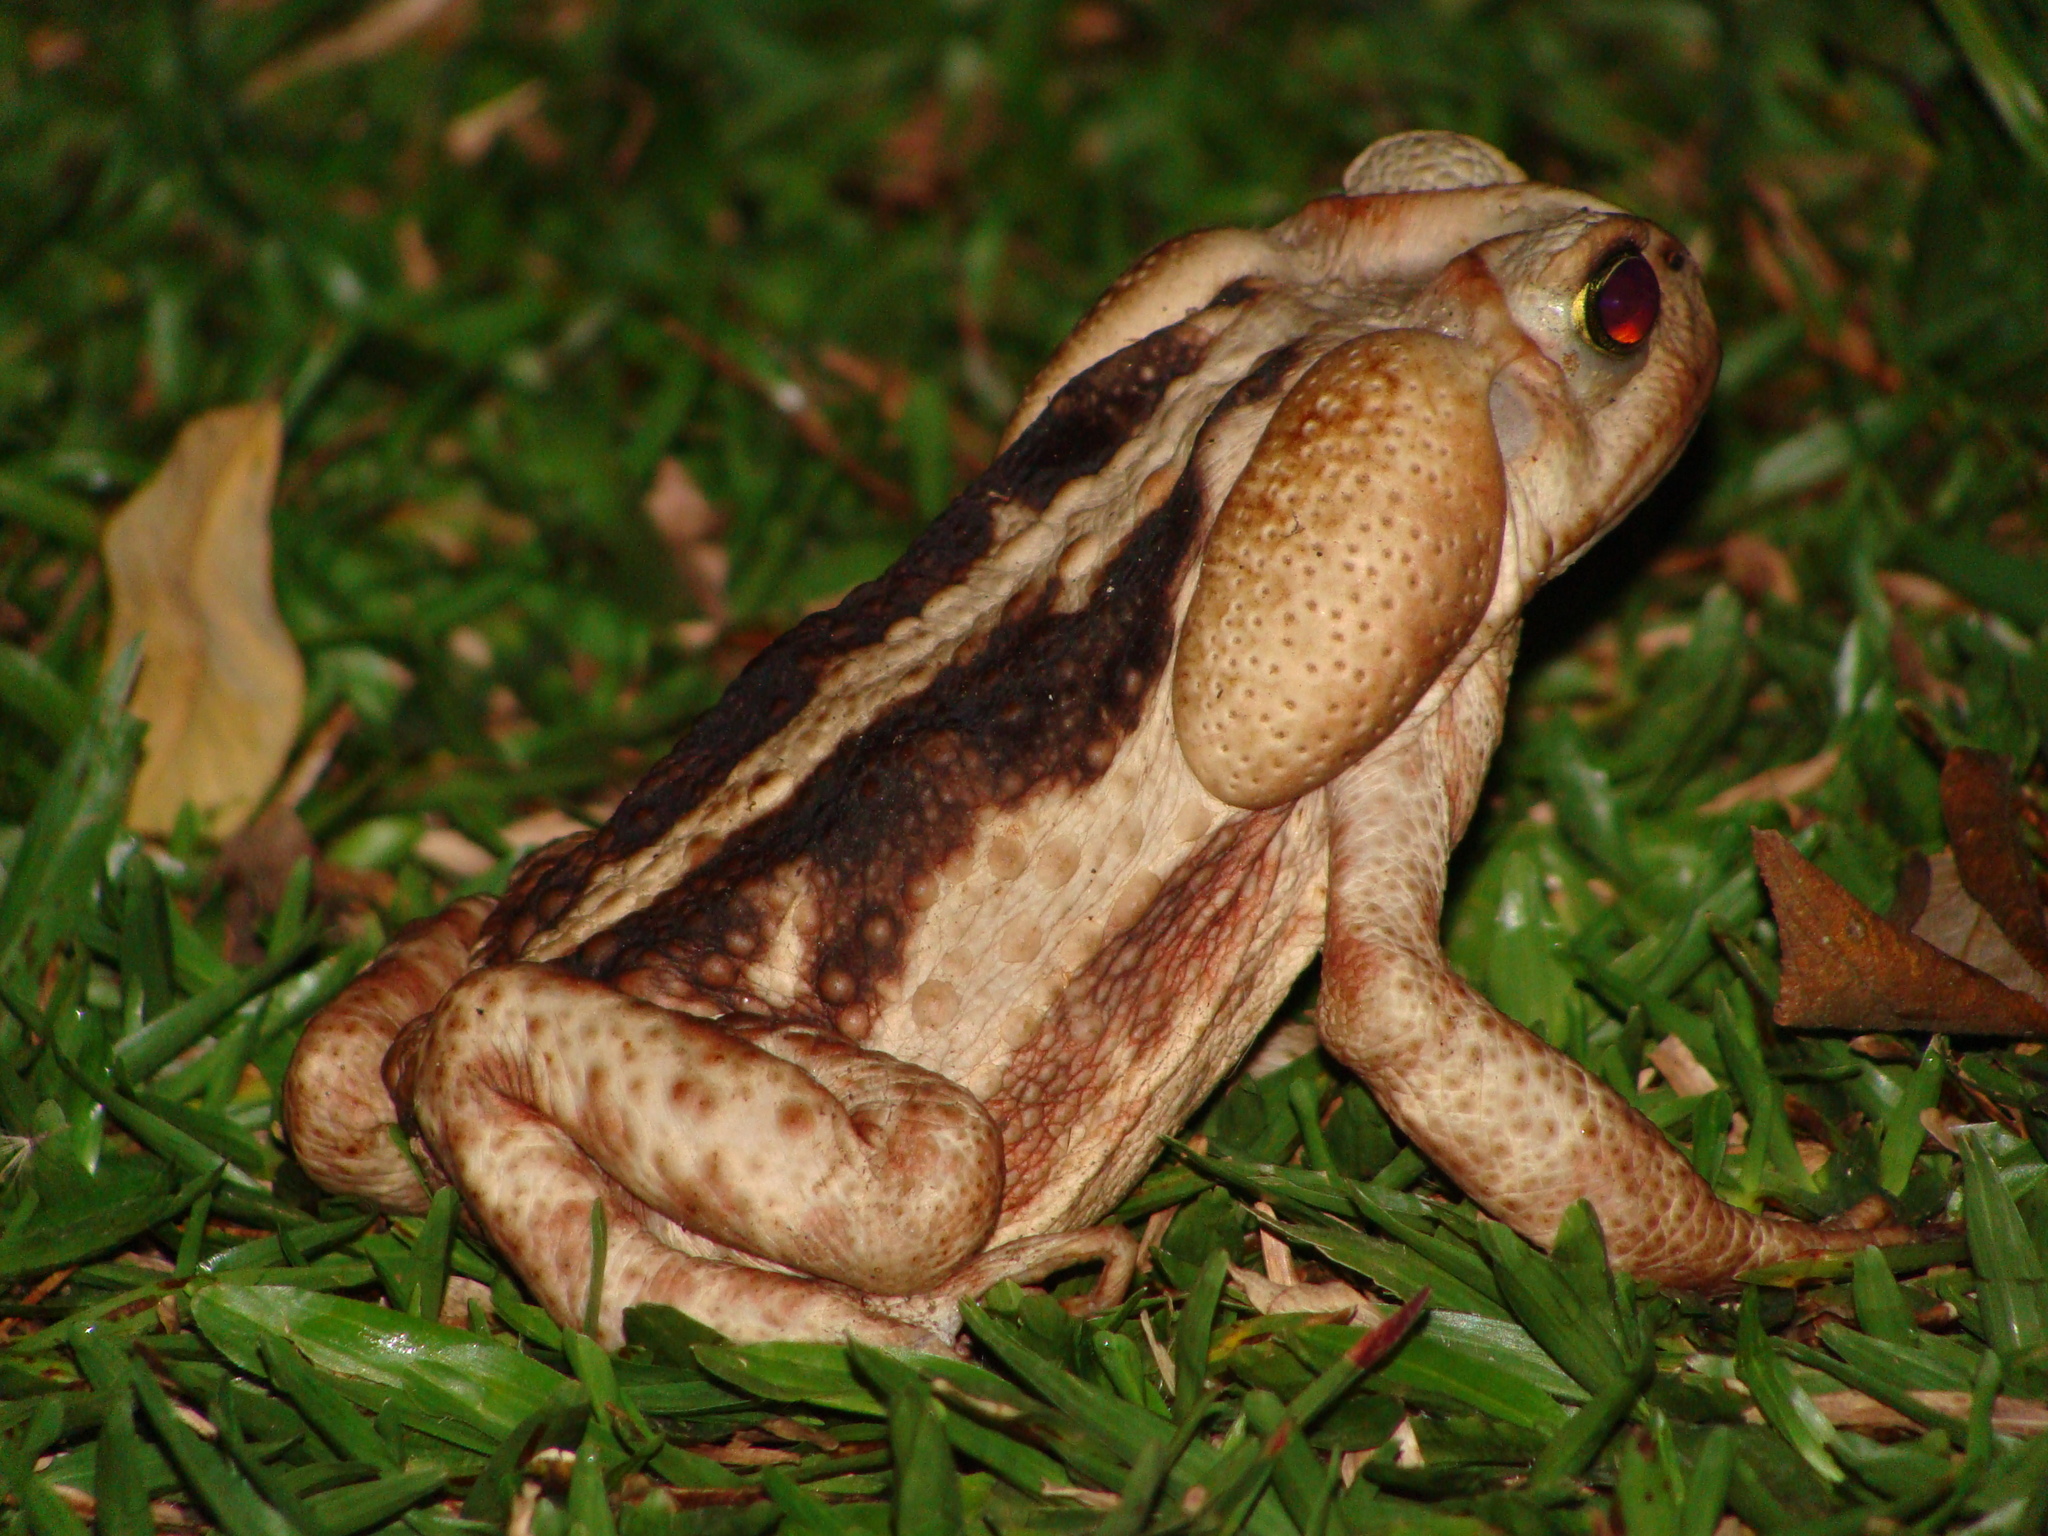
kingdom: Animalia
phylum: Chordata
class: Amphibia
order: Anura
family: Bufonidae
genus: Rhinella
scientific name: Rhinella icterica
